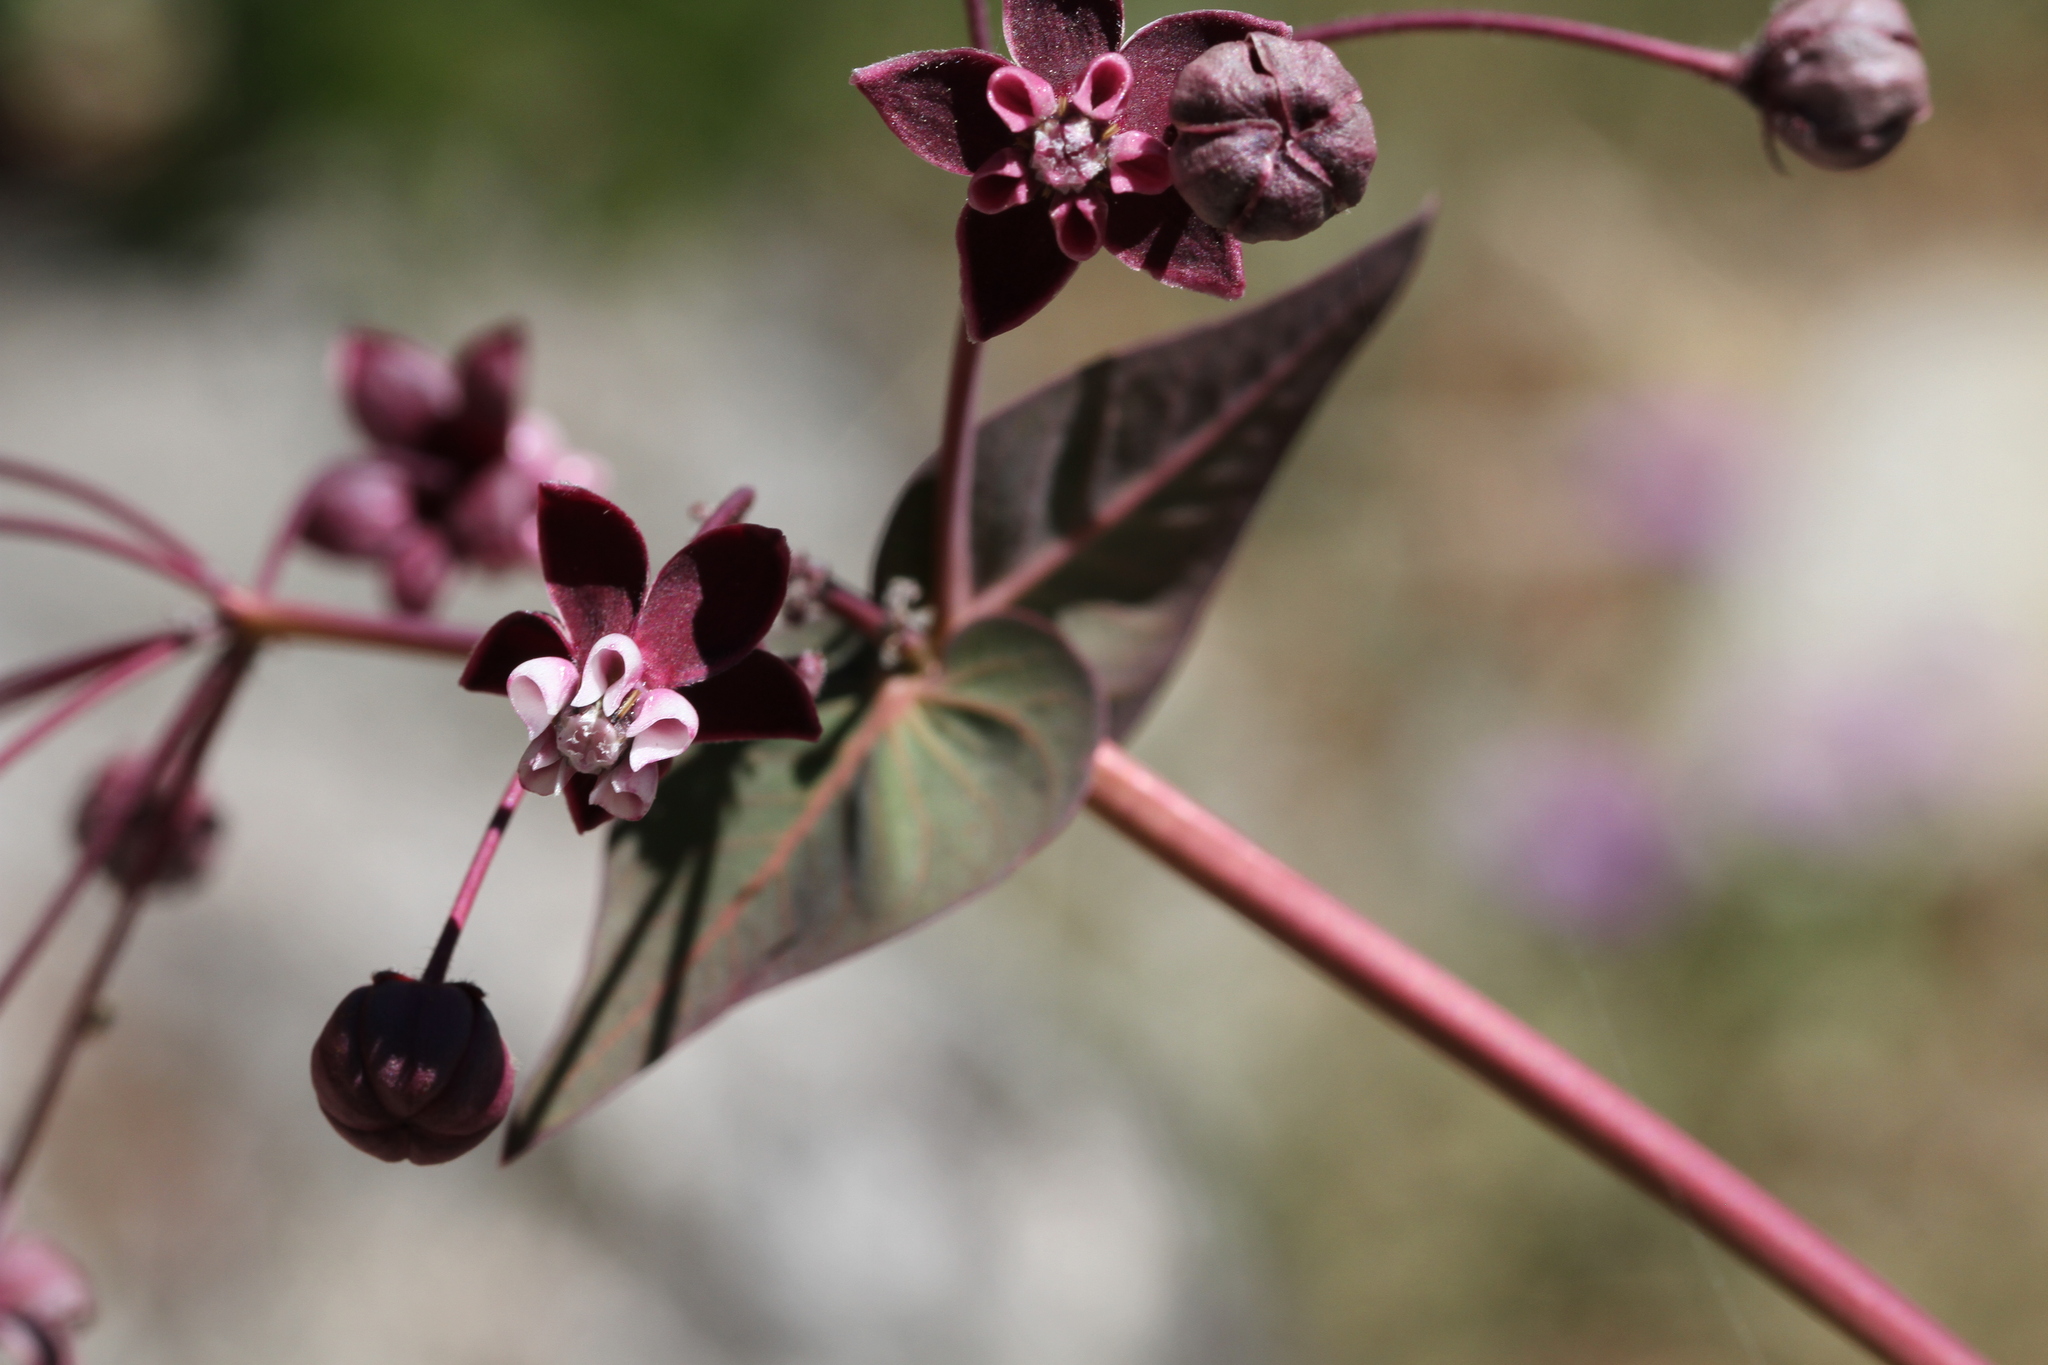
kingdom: Plantae
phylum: Tracheophyta
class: Magnoliopsida
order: Gentianales
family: Apocynaceae
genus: Asclepias
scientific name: Asclepias cordifolia
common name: Purple milkweed
